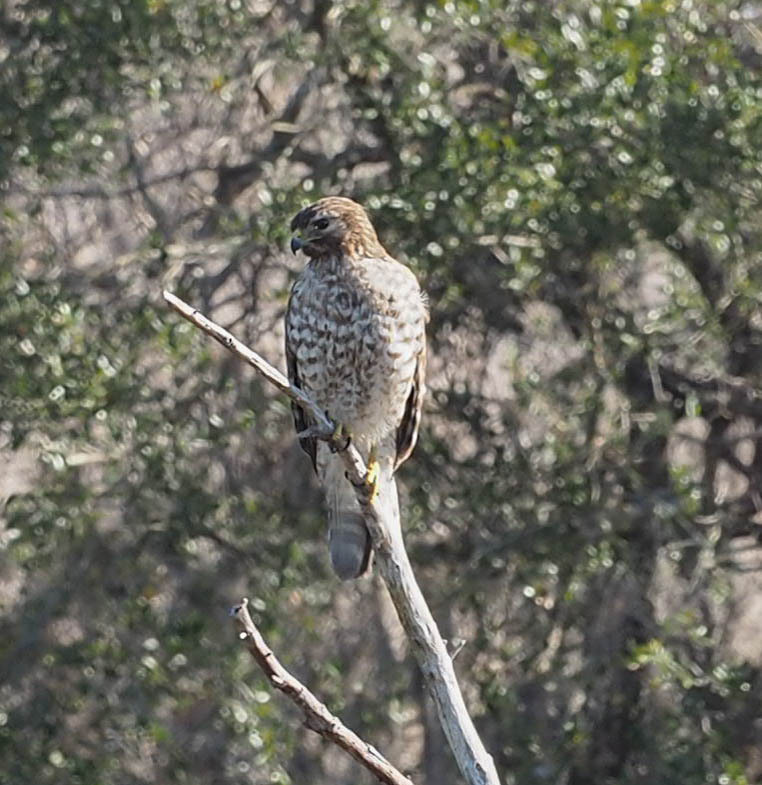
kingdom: Animalia
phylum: Chordata
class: Aves
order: Accipitriformes
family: Accipitridae
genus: Buteo
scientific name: Buteo lineatus
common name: Red-shouldered hawk
